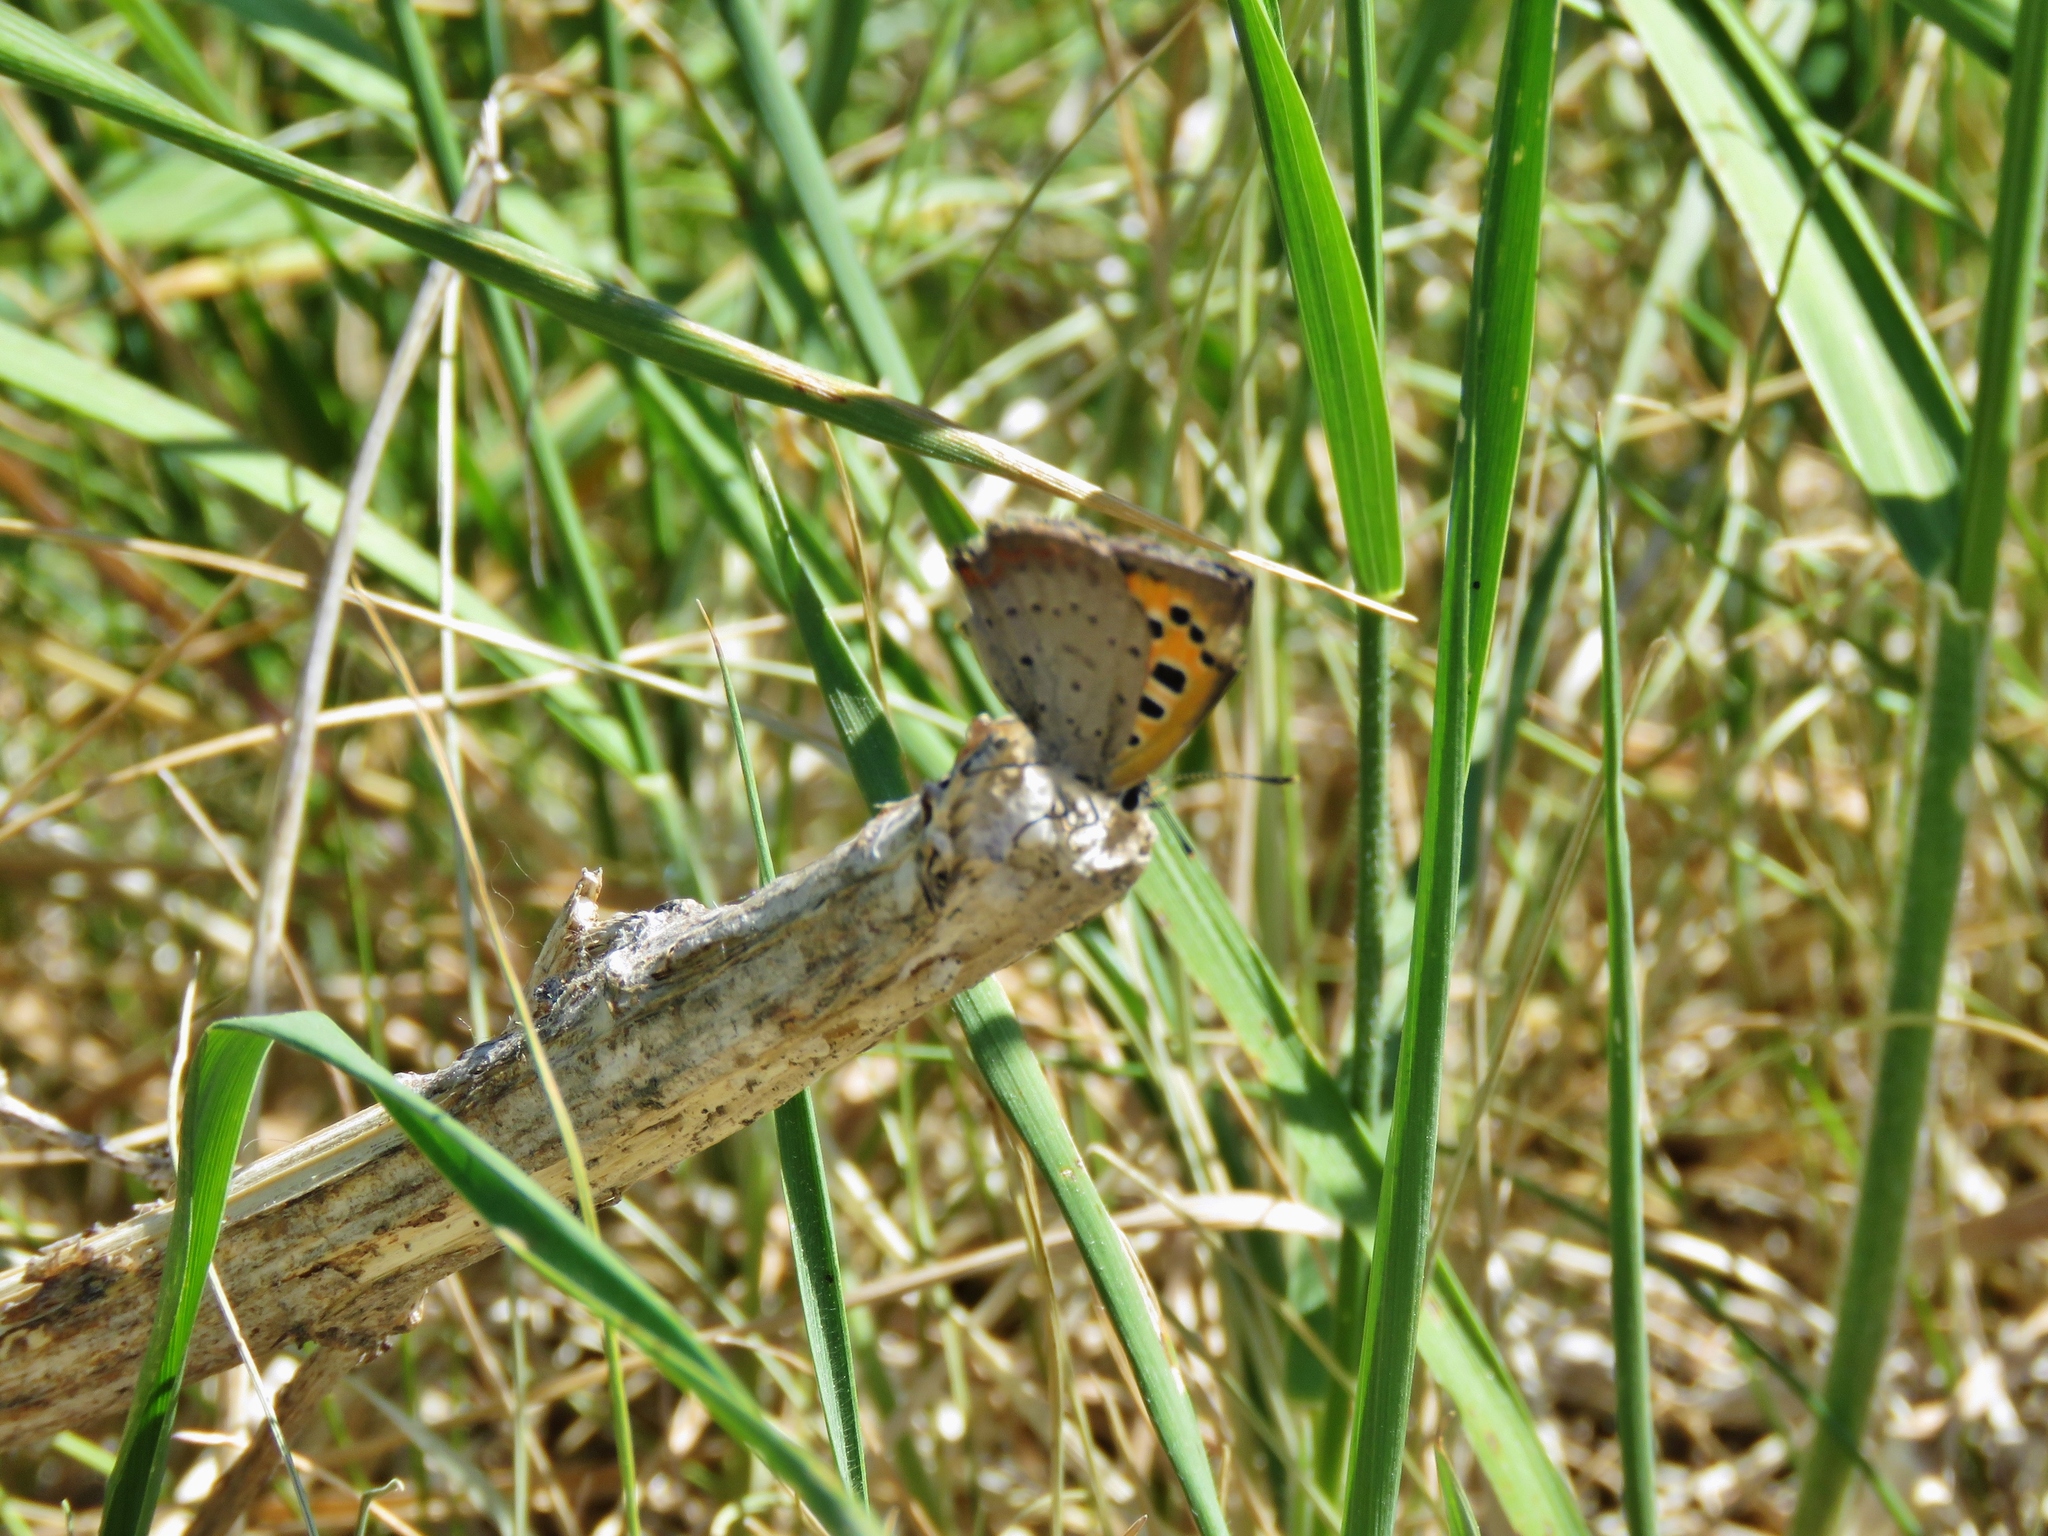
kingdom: Animalia
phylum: Arthropoda
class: Insecta
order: Lepidoptera
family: Lycaenidae
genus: Lycaena
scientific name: Lycaena phlaeas
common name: Small copper
